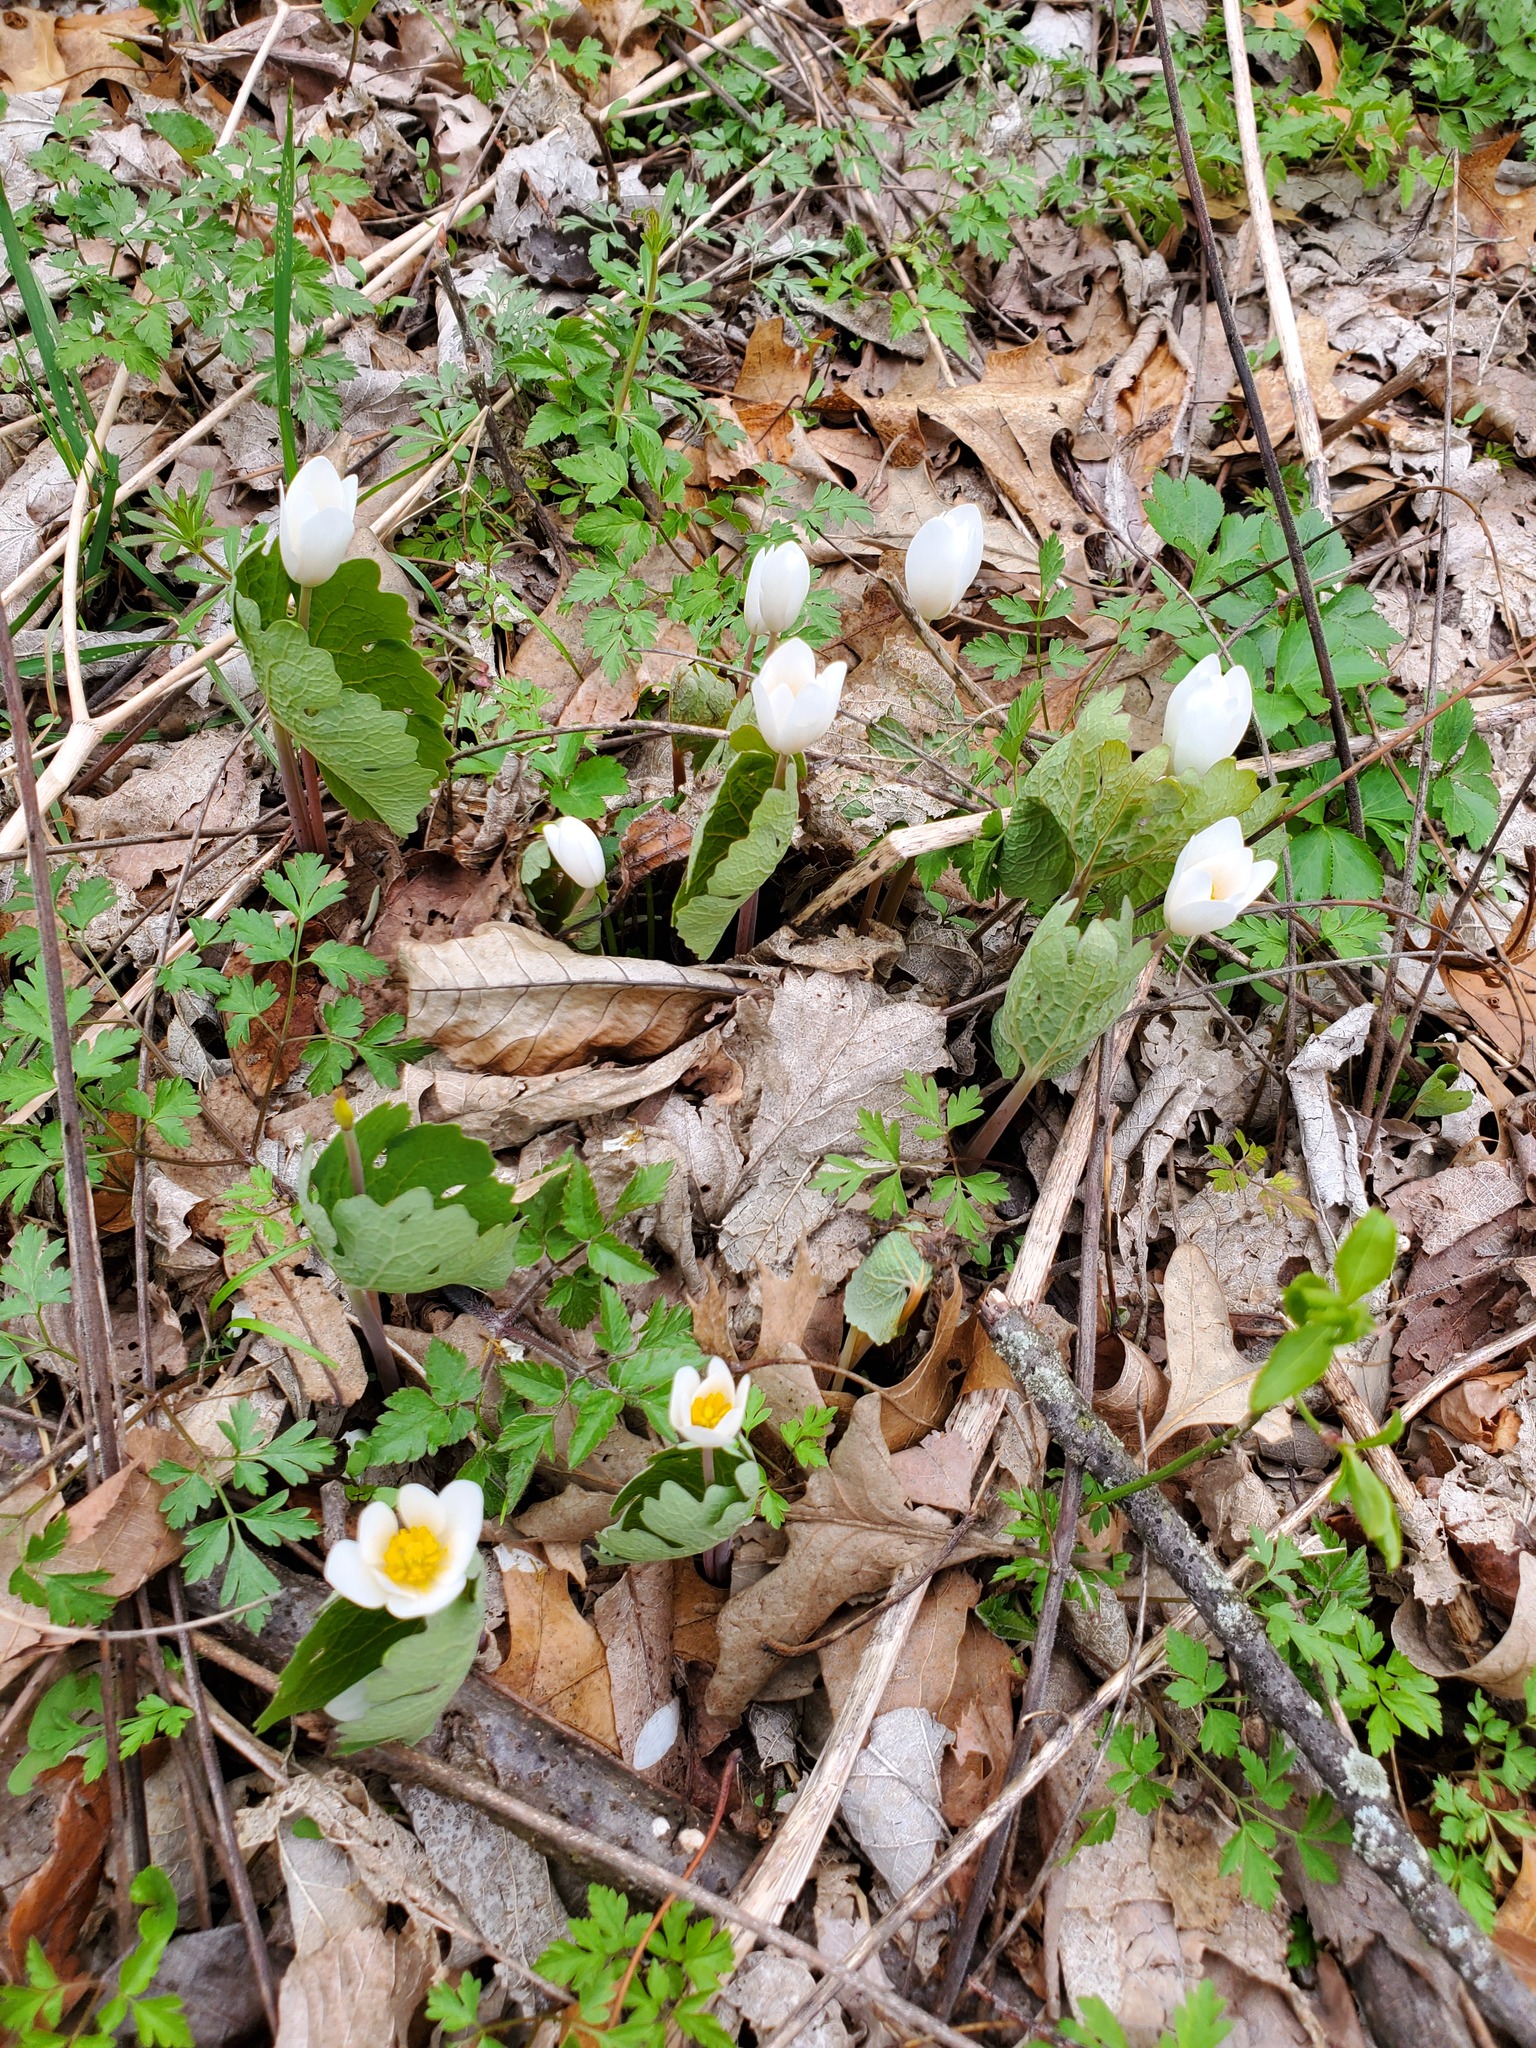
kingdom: Plantae
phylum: Tracheophyta
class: Magnoliopsida
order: Ranunculales
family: Papaveraceae
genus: Sanguinaria
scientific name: Sanguinaria canadensis
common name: Bloodroot
